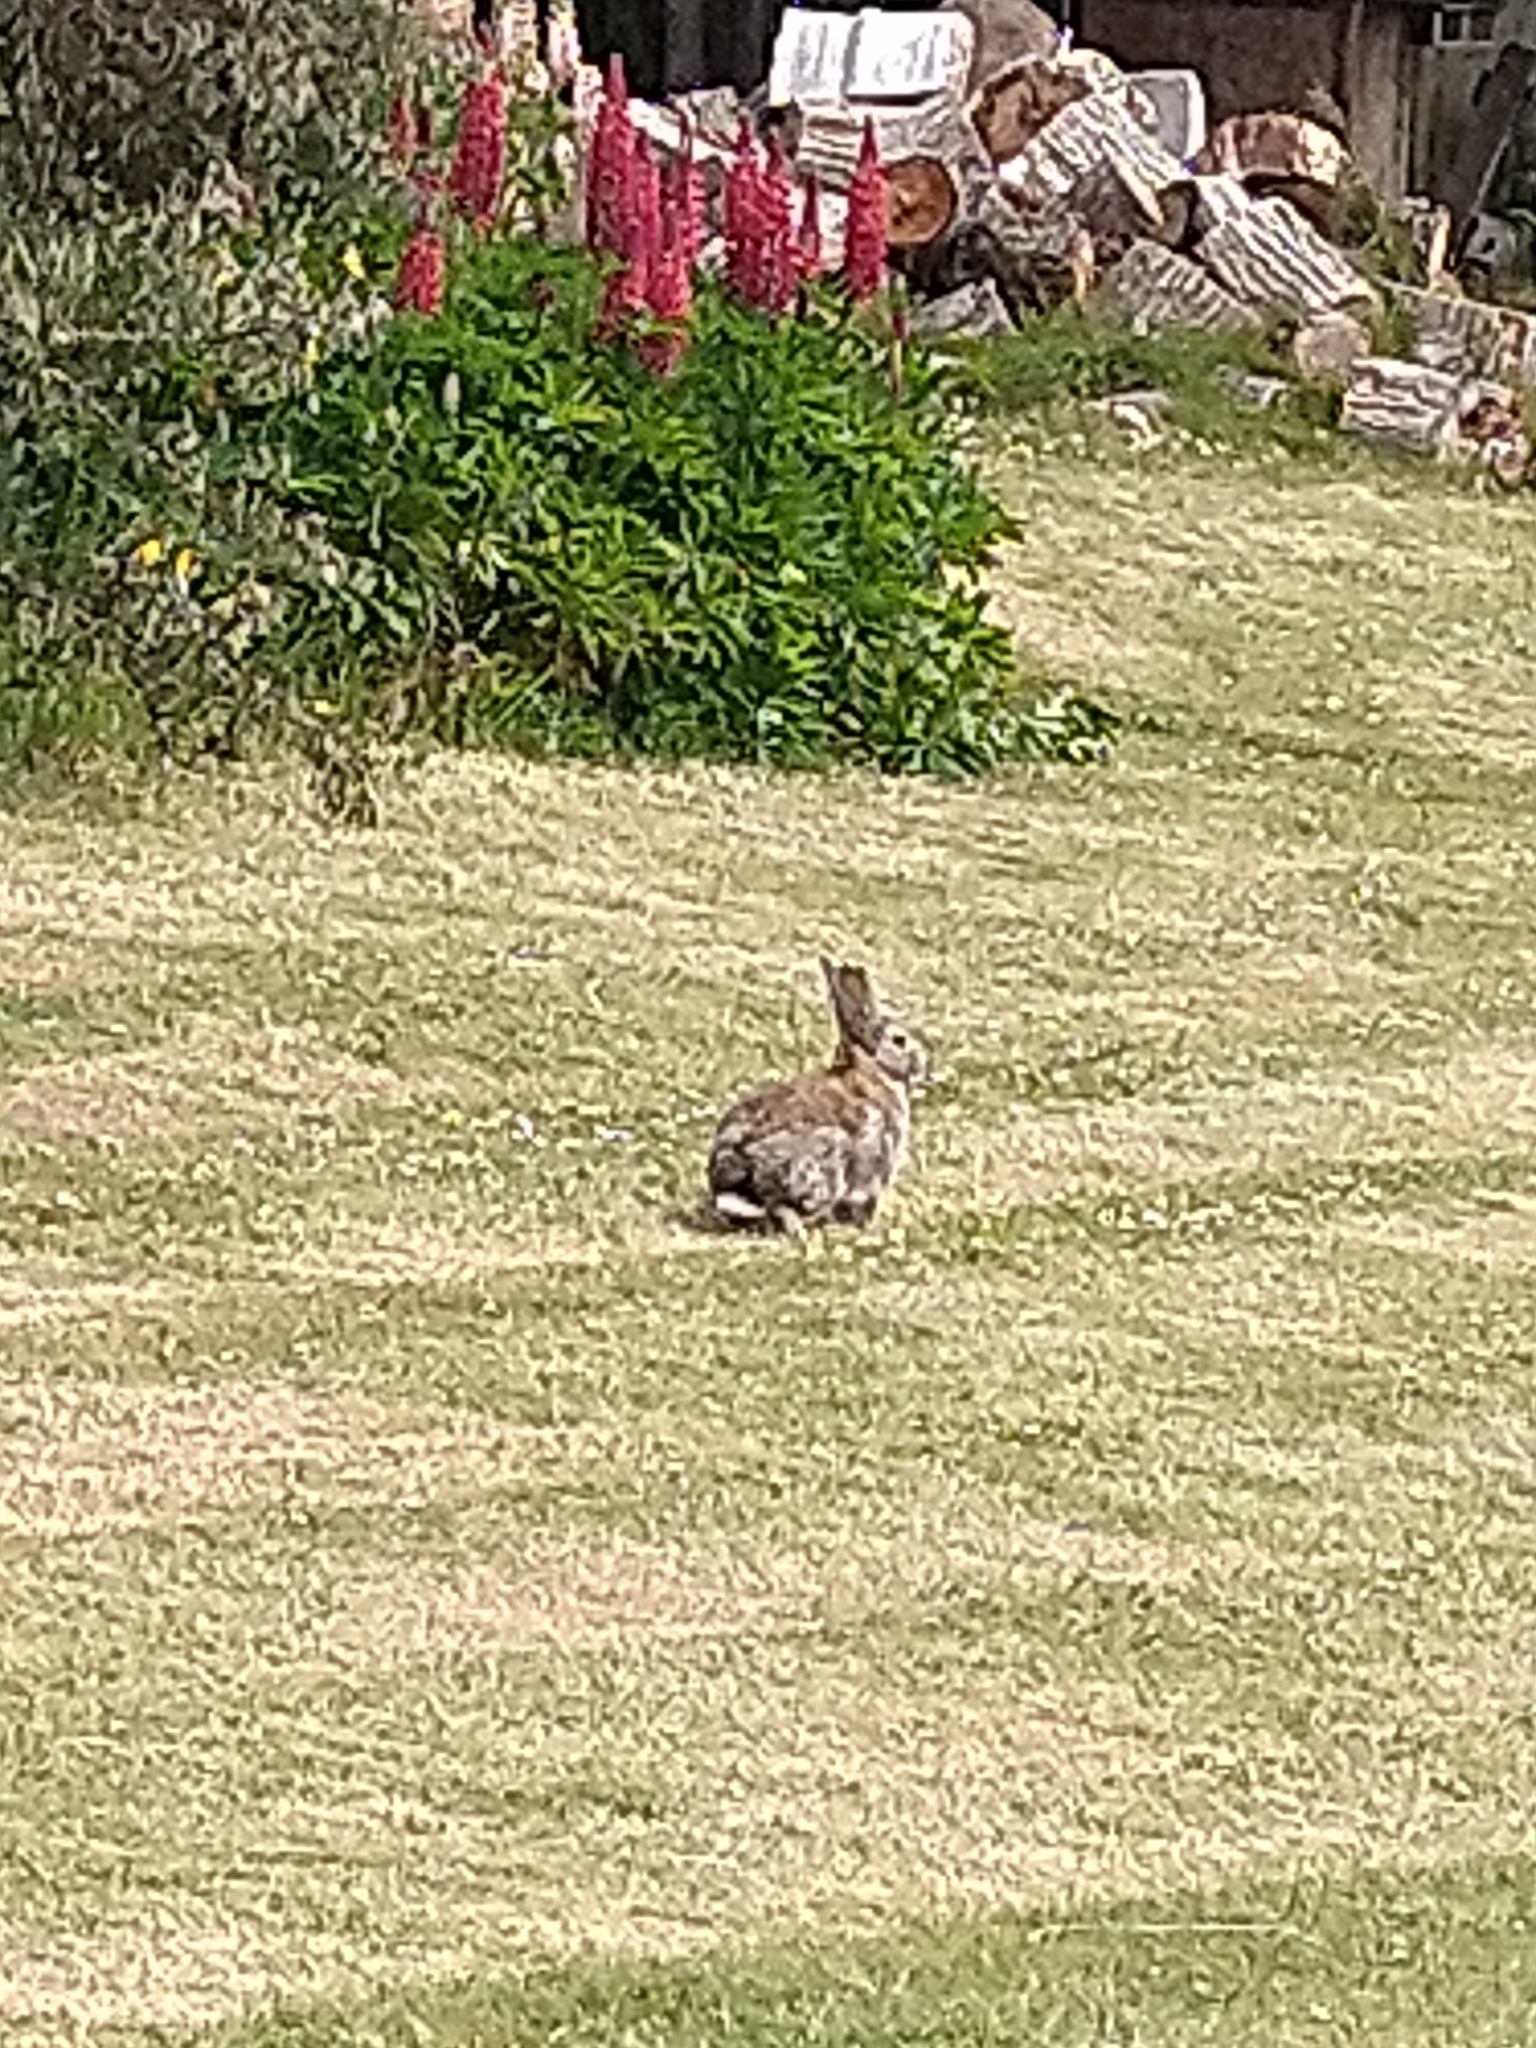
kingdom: Animalia
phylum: Chordata
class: Mammalia
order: Lagomorpha
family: Leporidae
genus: Oryctolagus
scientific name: Oryctolagus cuniculus
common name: European rabbit
